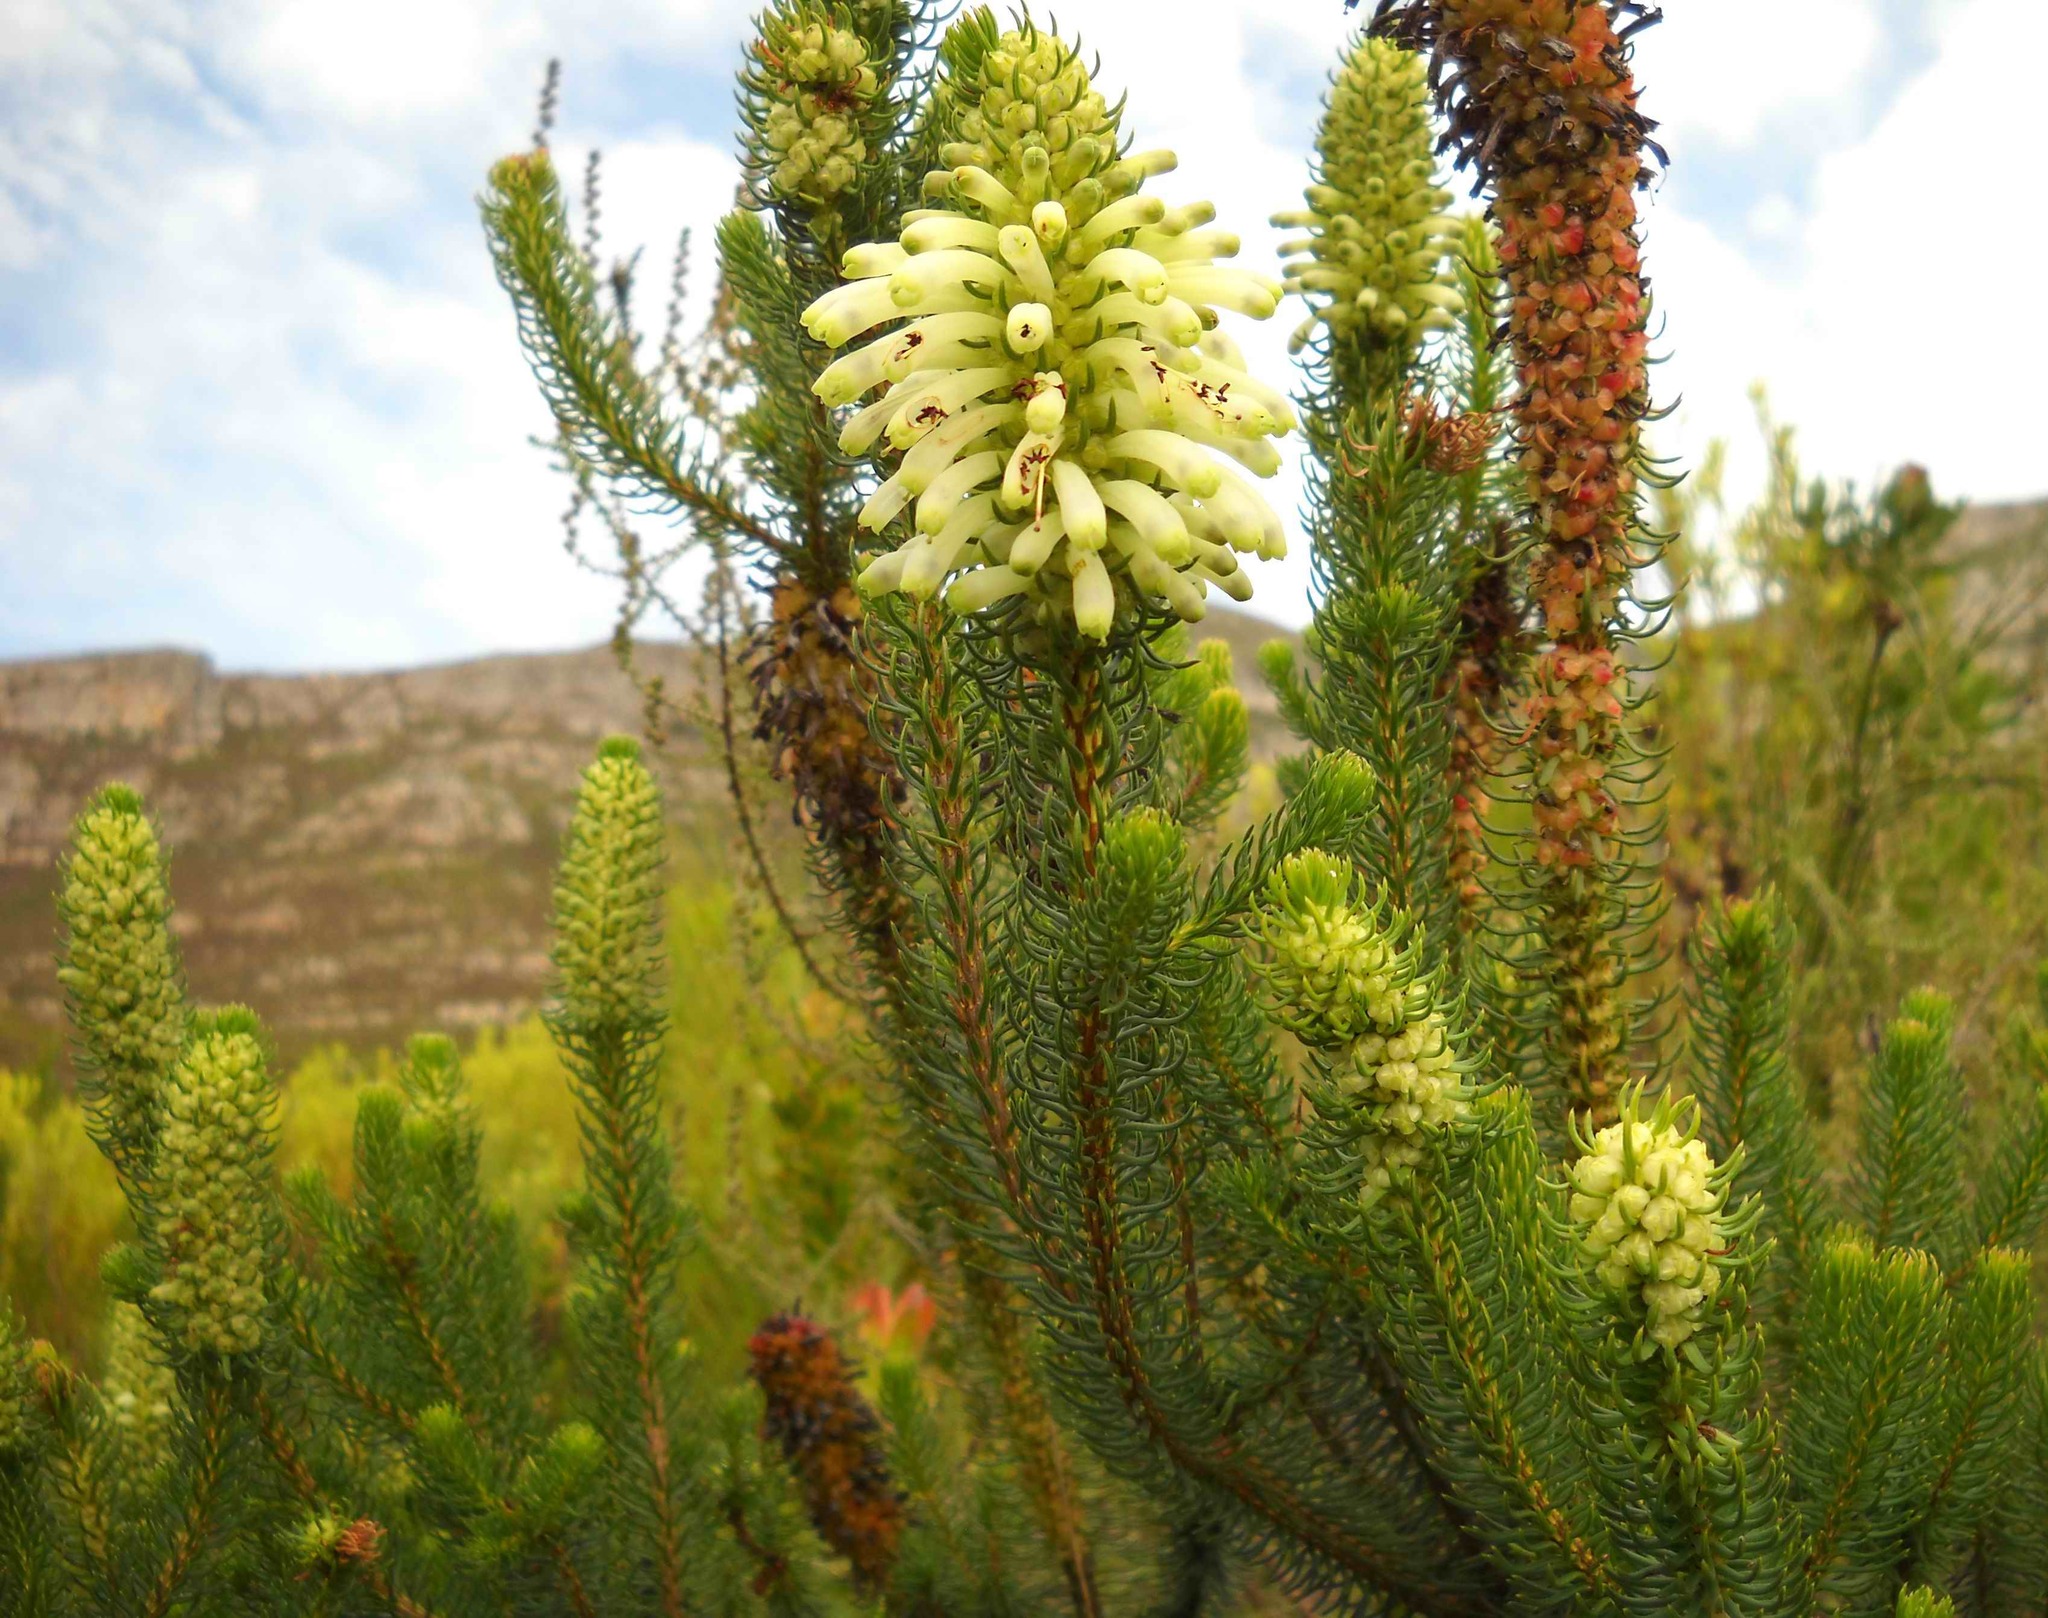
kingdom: Plantae
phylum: Tracheophyta
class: Magnoliopsida
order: Ericales
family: Ericaceae
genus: Erica
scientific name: Erica sessiliflora
